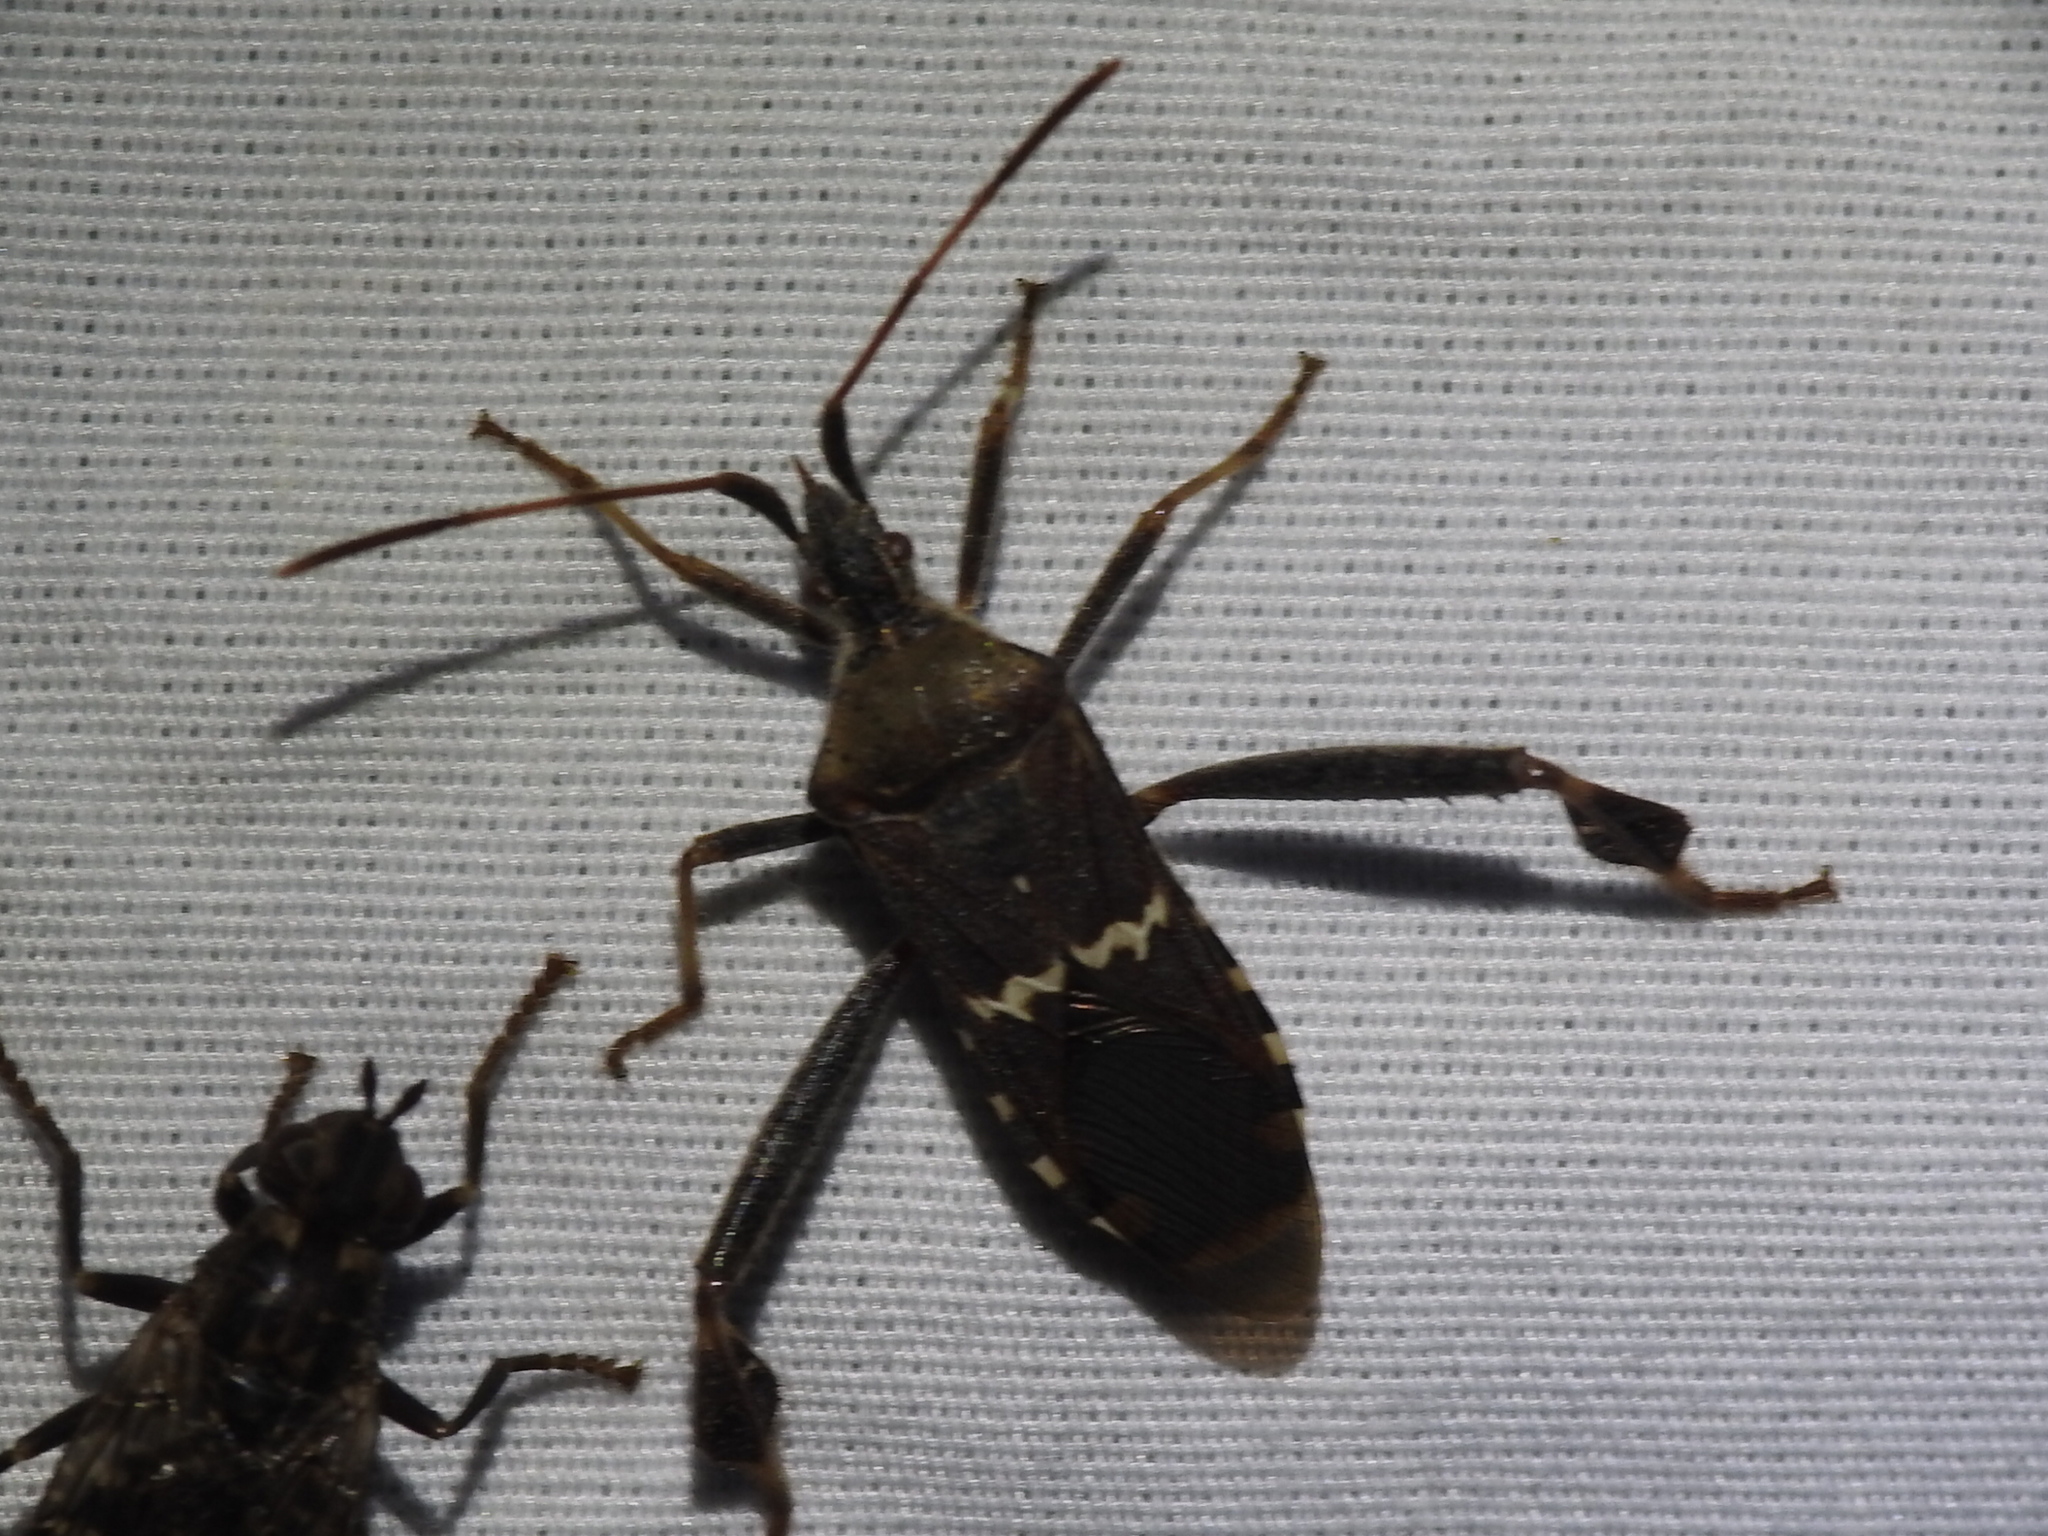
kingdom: Animalia
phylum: Arthropoda
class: Insecta
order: Hemiptera
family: Coreidae
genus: Leptoglossus
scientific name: Leptoglossus clypealis
